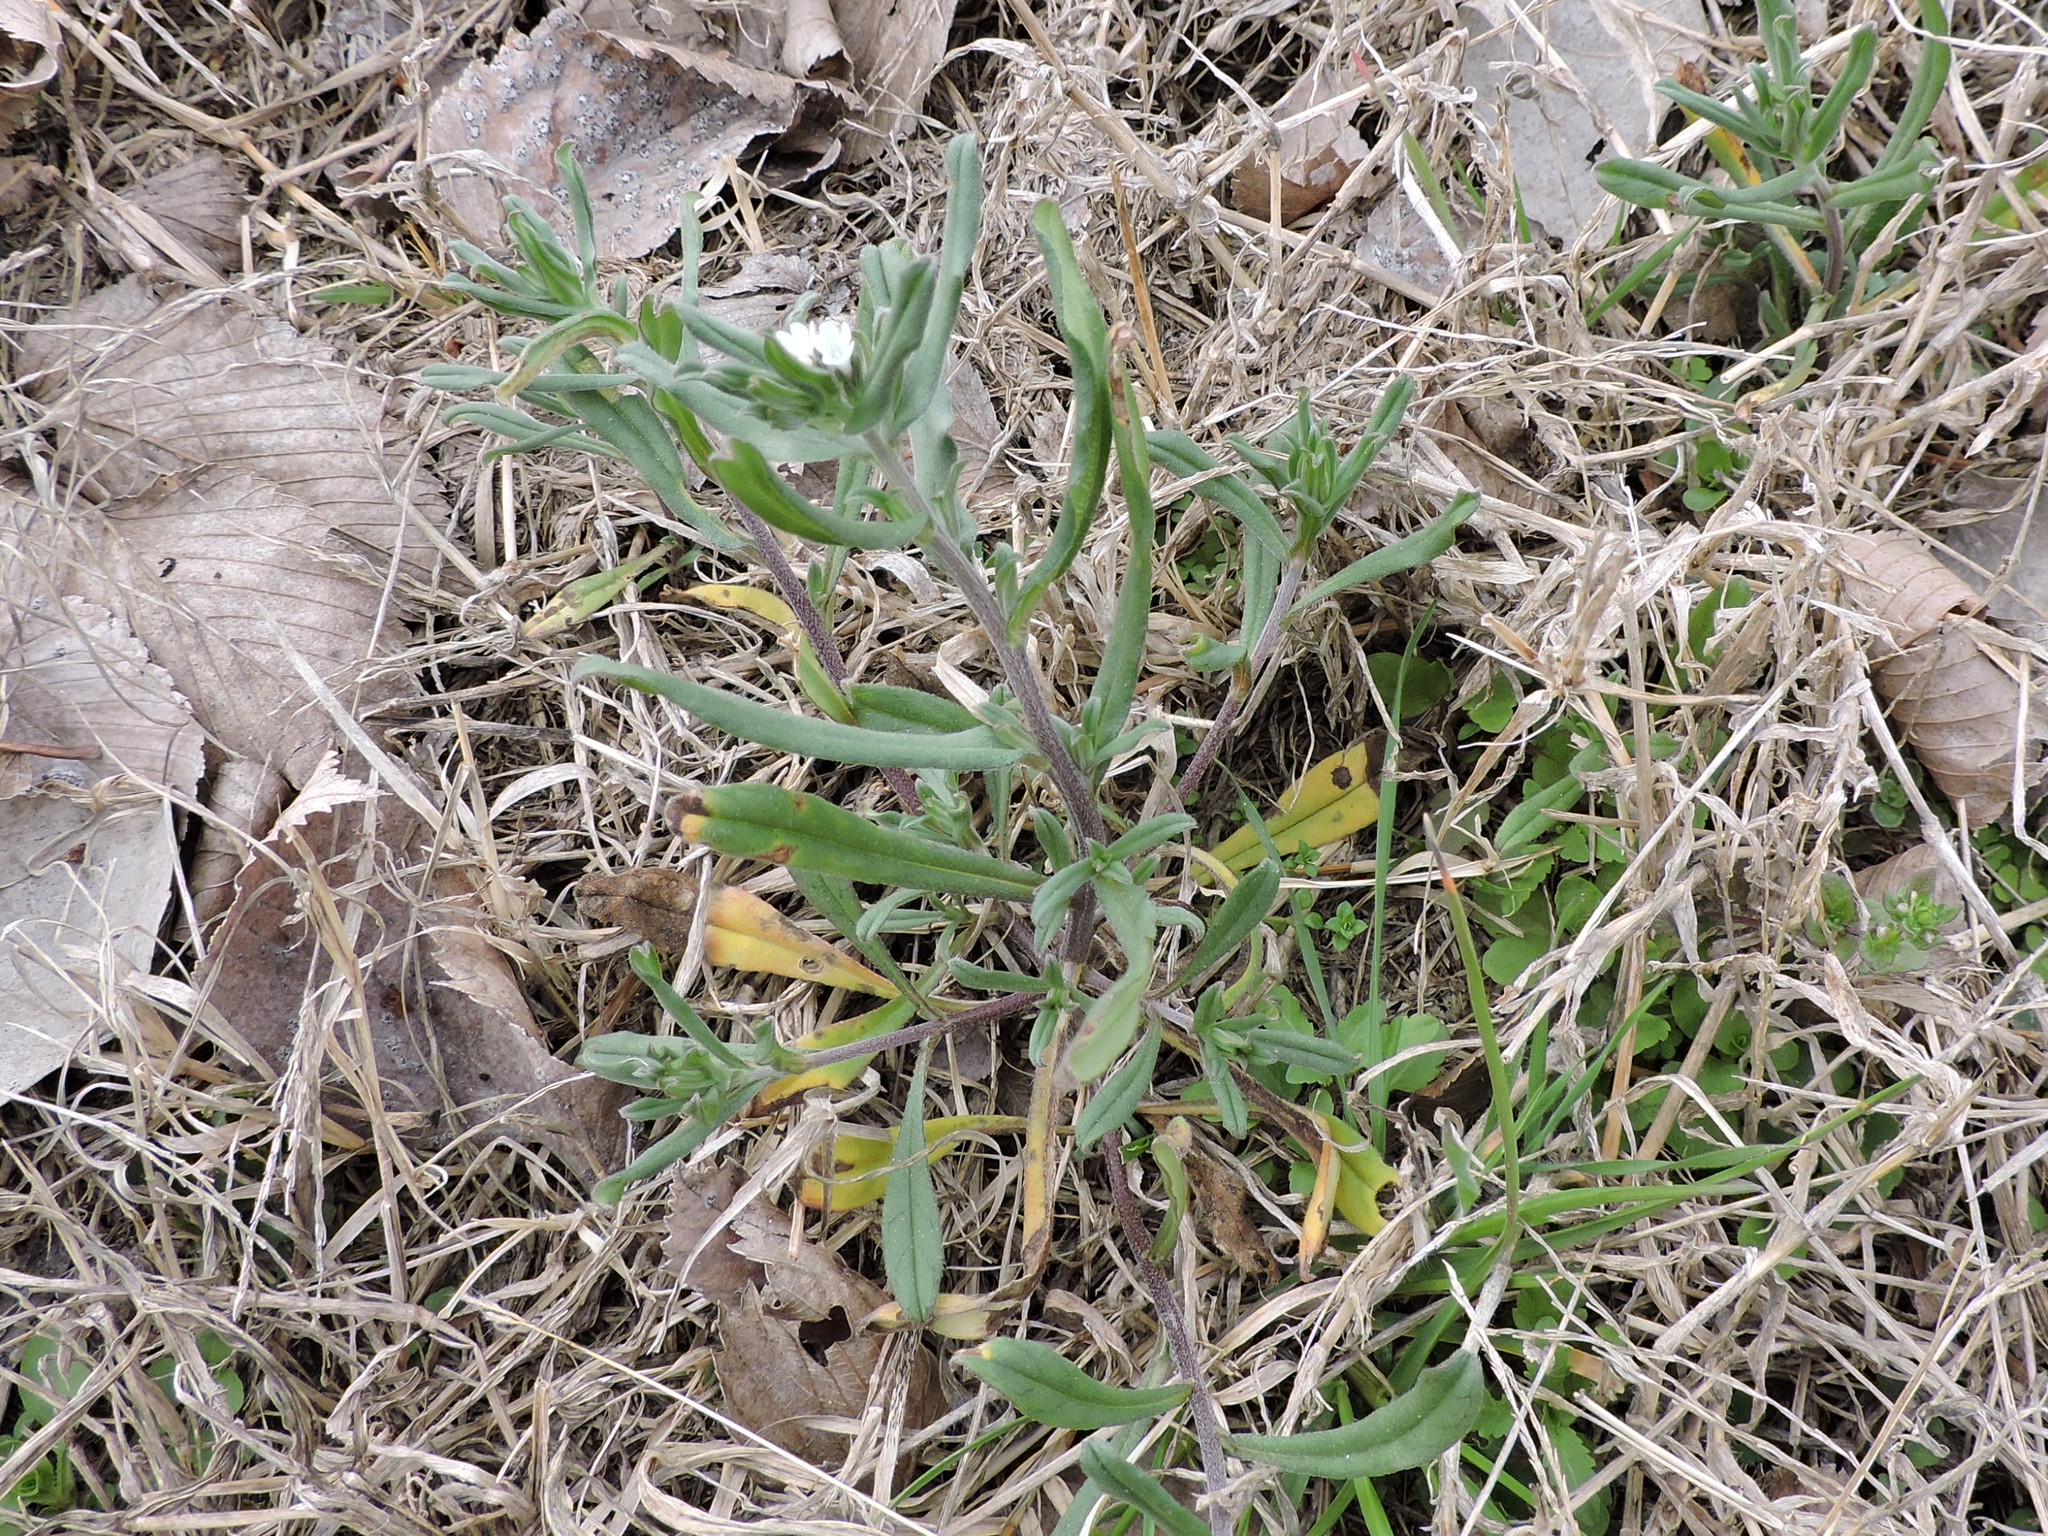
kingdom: Plantae
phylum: Tracheophyta
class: Magnoliopsida
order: Boraginales
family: Boraginaceae
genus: Buglossoides
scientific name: Buglossoides arvensis
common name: Corn gromwell
